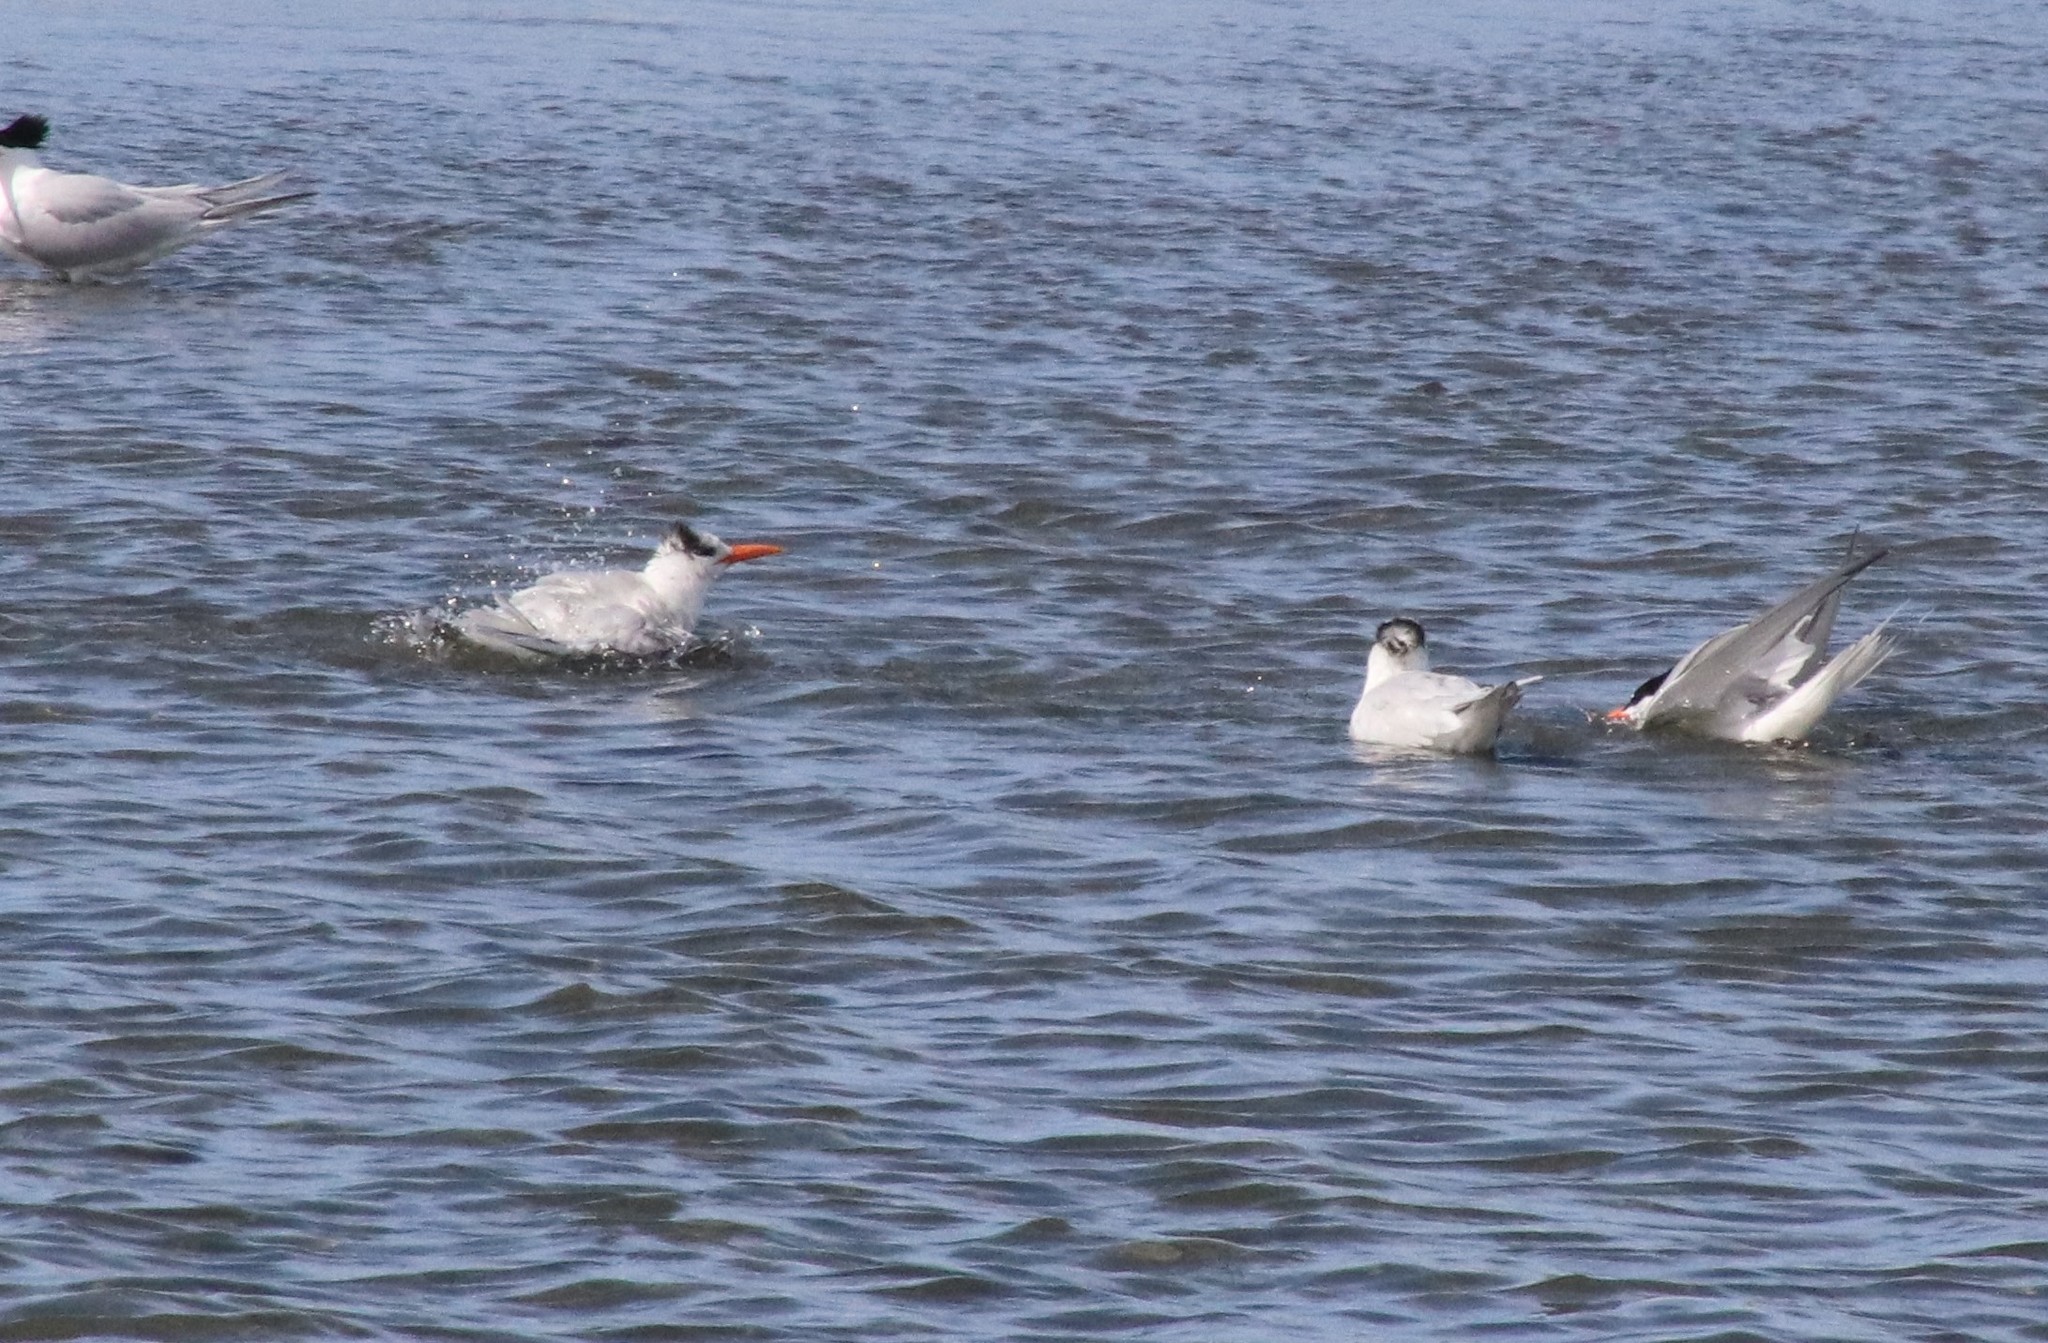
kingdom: Animalia
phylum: Chordata
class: Aves
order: Charadriiformes
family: Laridae
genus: Thalasseus
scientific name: Thalasseus maximus
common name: Royal tern
